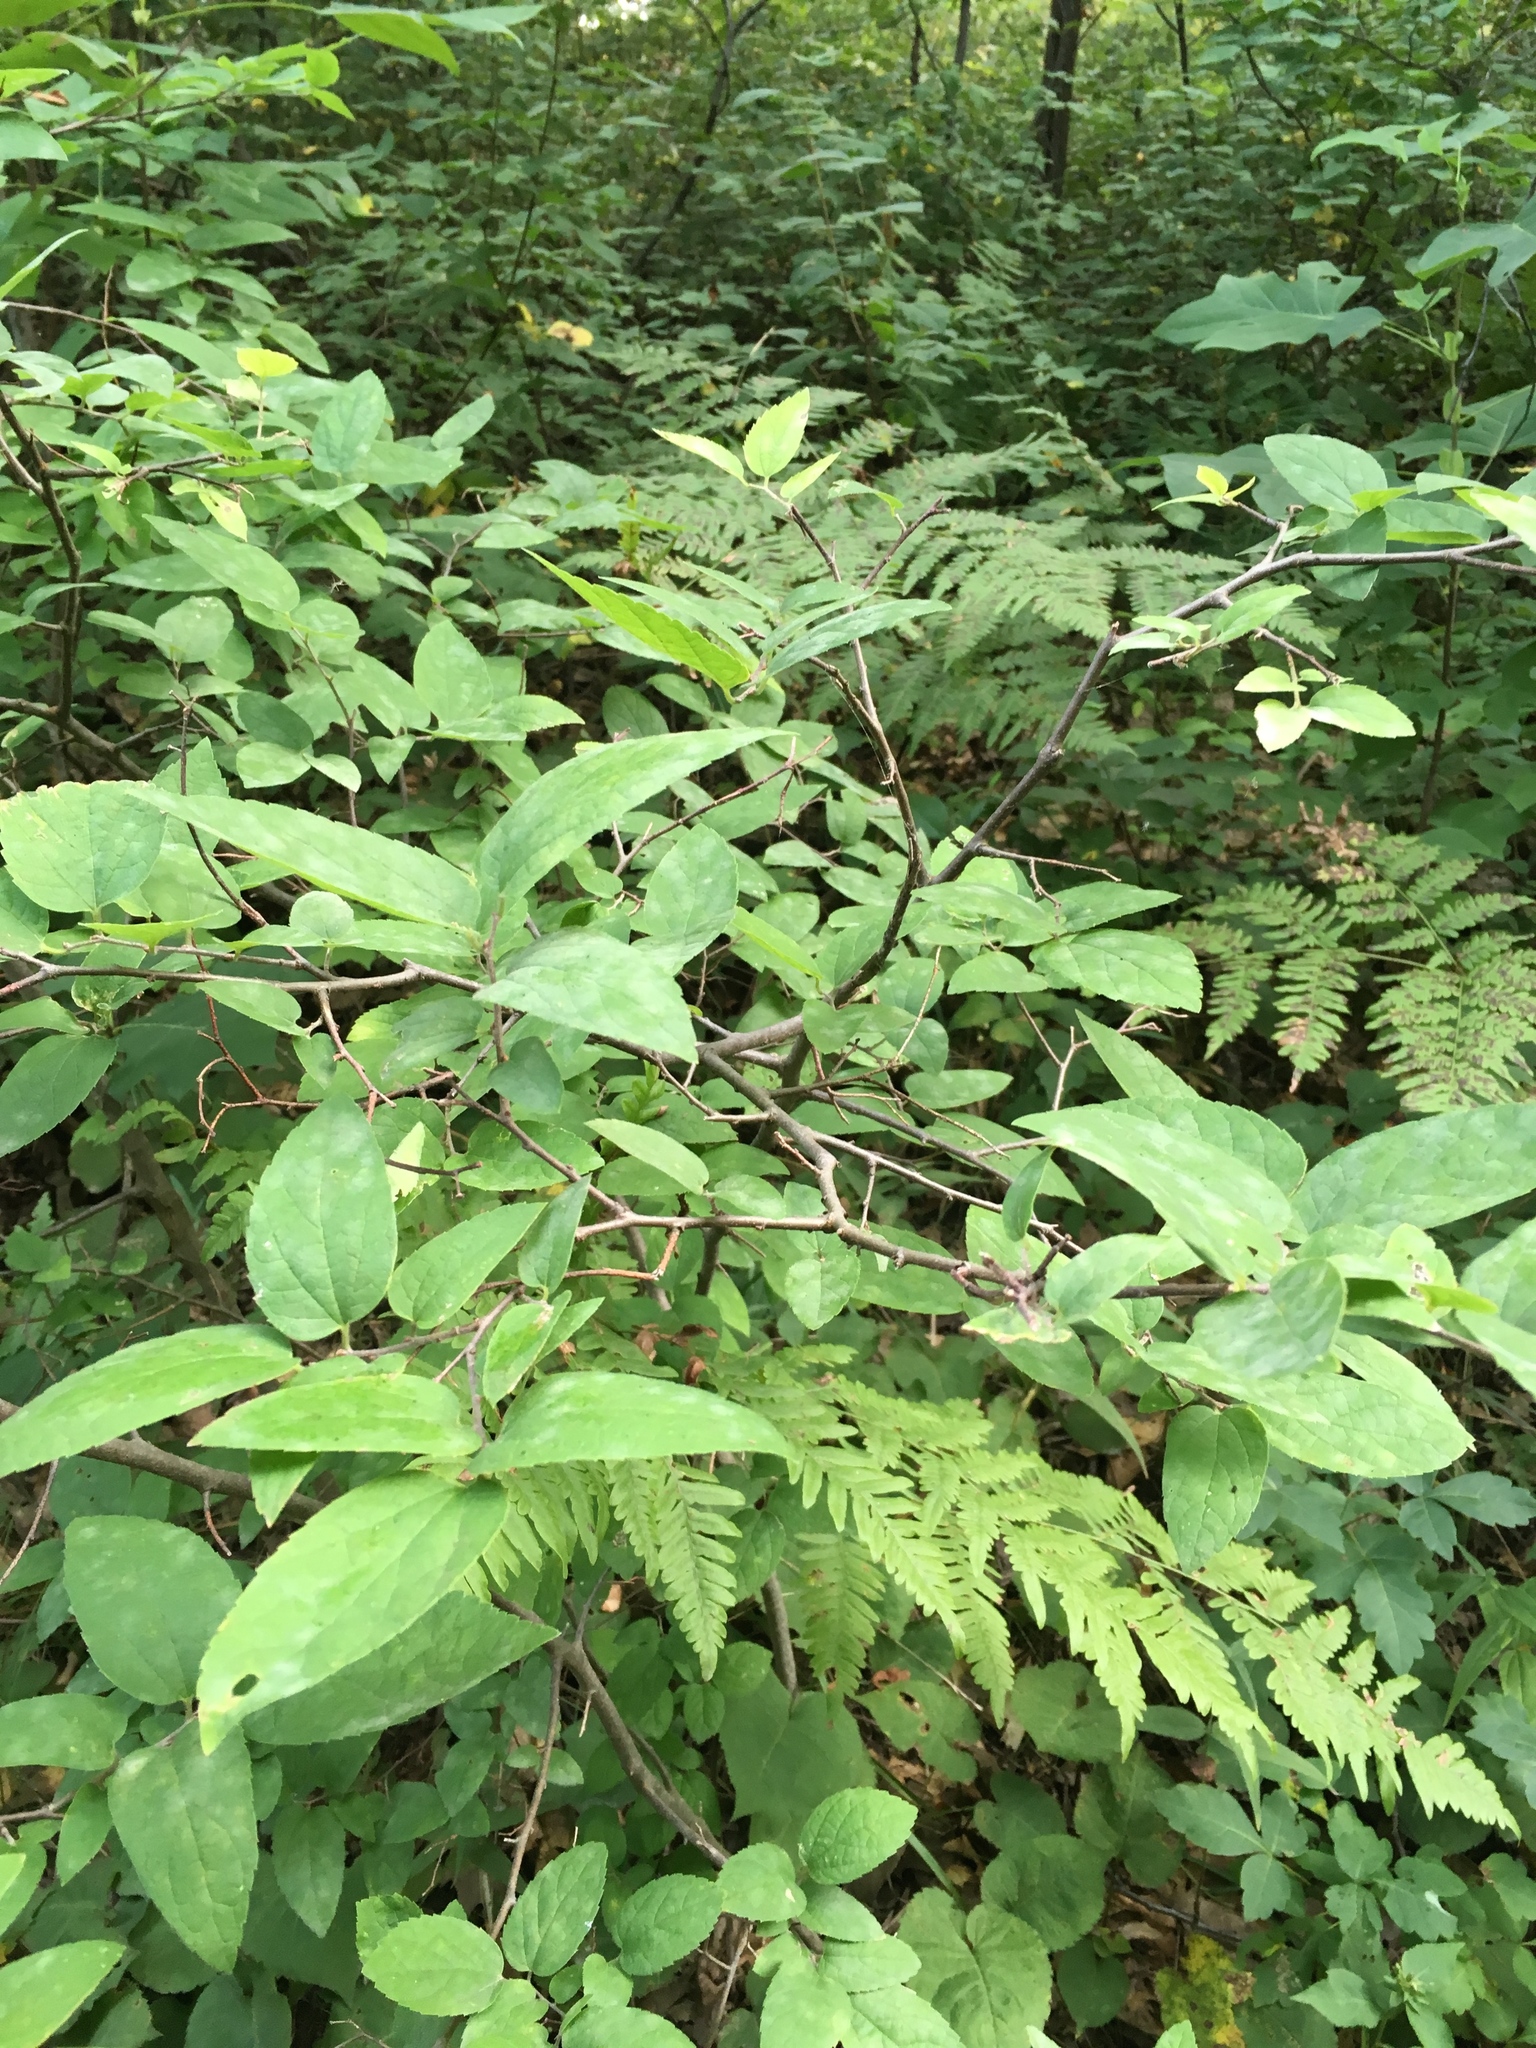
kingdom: Plantae
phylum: Tracheophyta
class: Magnoliopsida
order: Rosales
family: Cannabaceae
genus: Celtis
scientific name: Celtis tenuifolia
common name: Georgia hackberry
